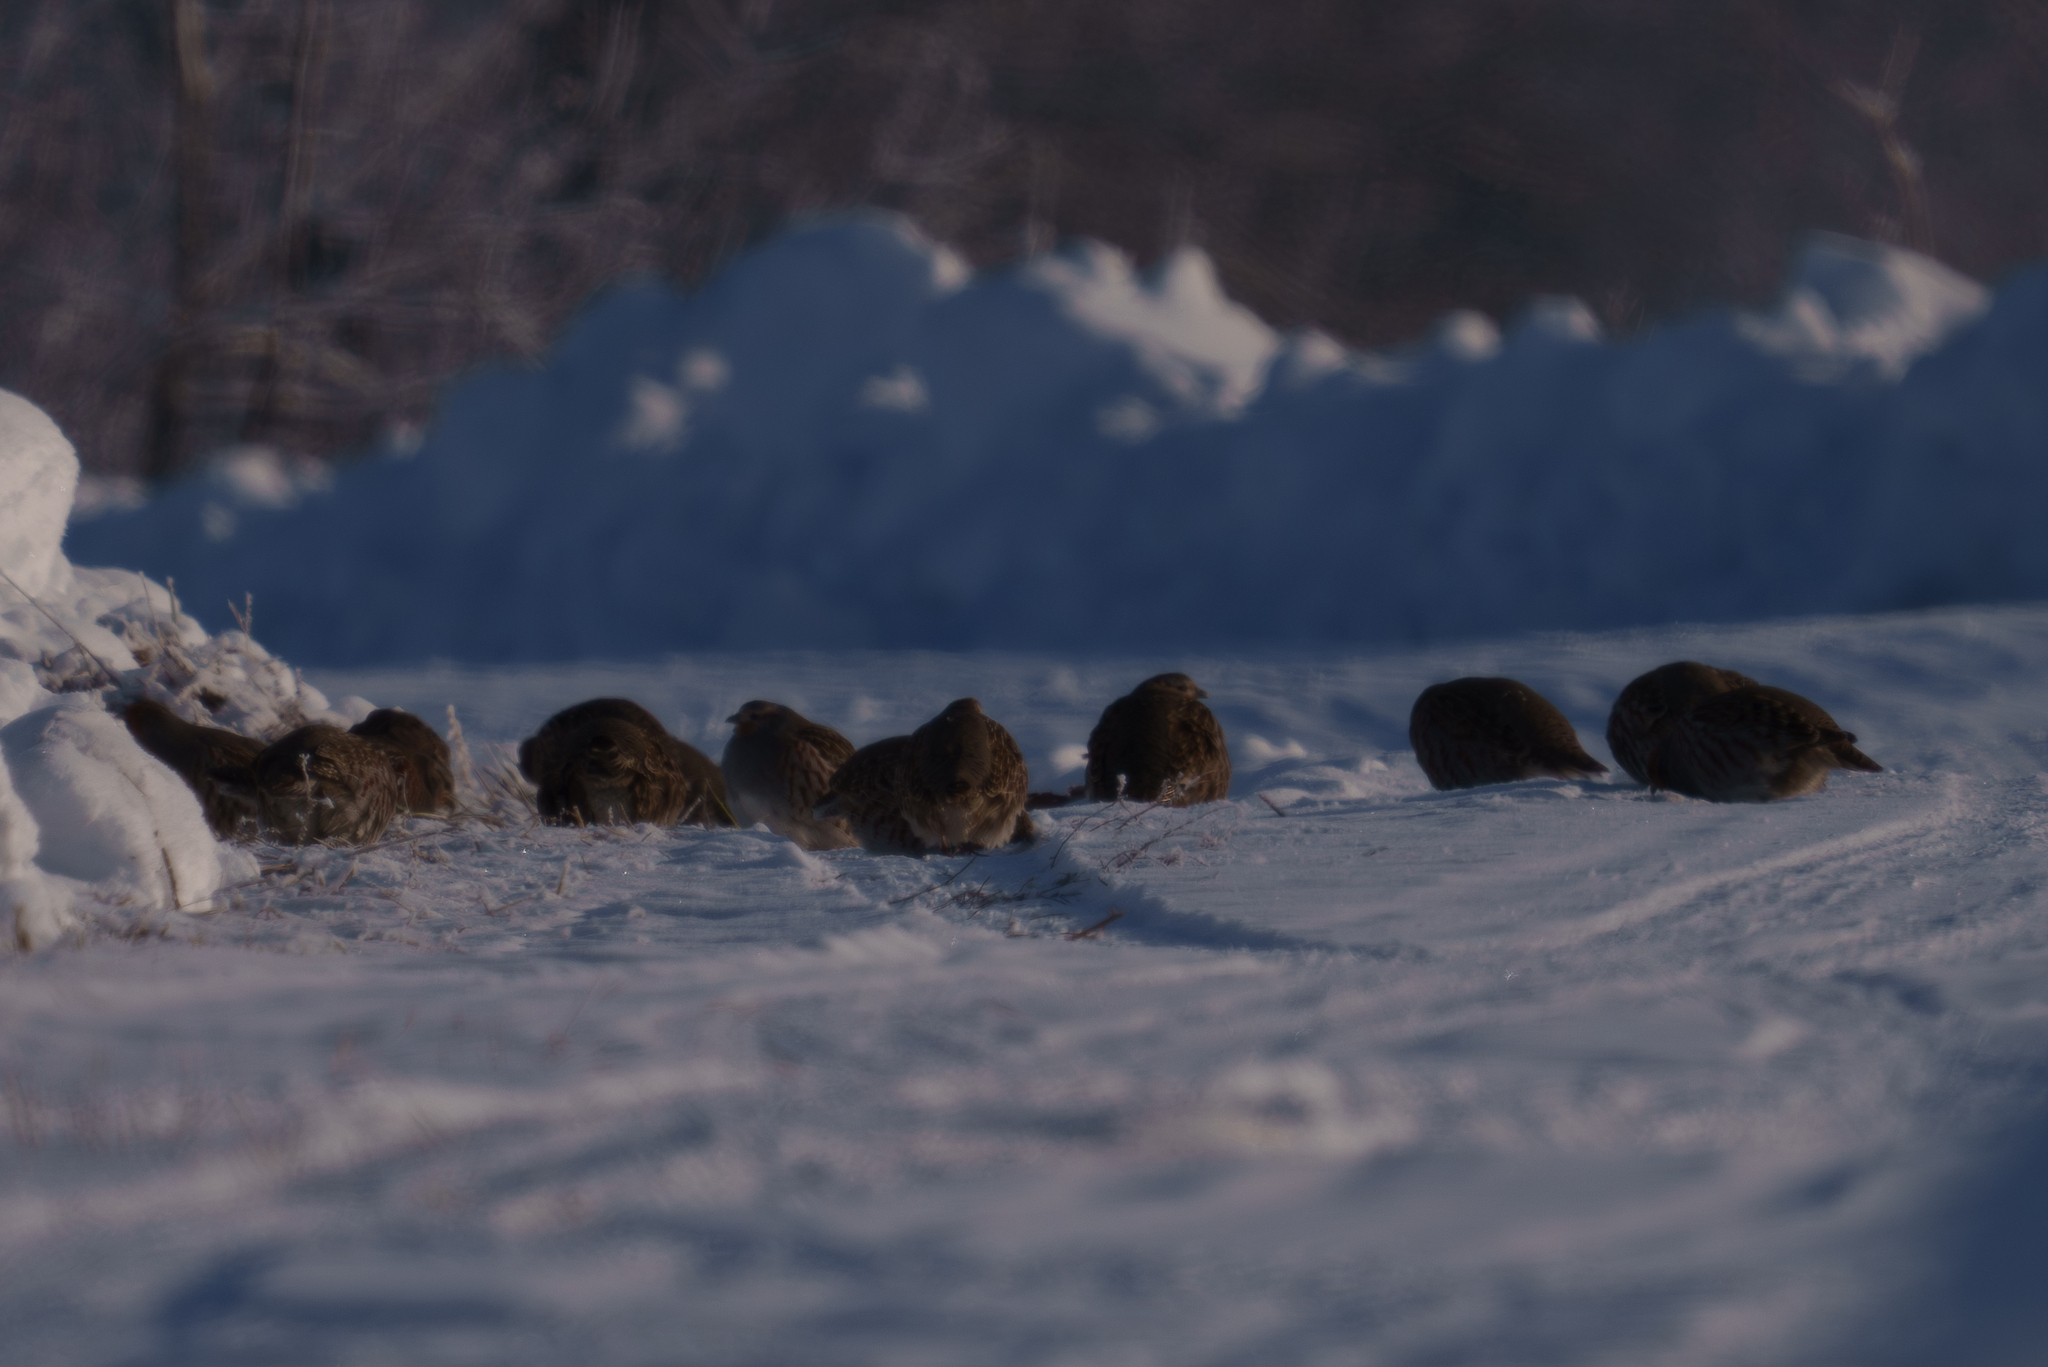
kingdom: Animalia
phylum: Chordata
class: Aves
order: Galliformes
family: Phasianidae
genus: Perdix
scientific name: Perdix perdix
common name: Grey partridge
